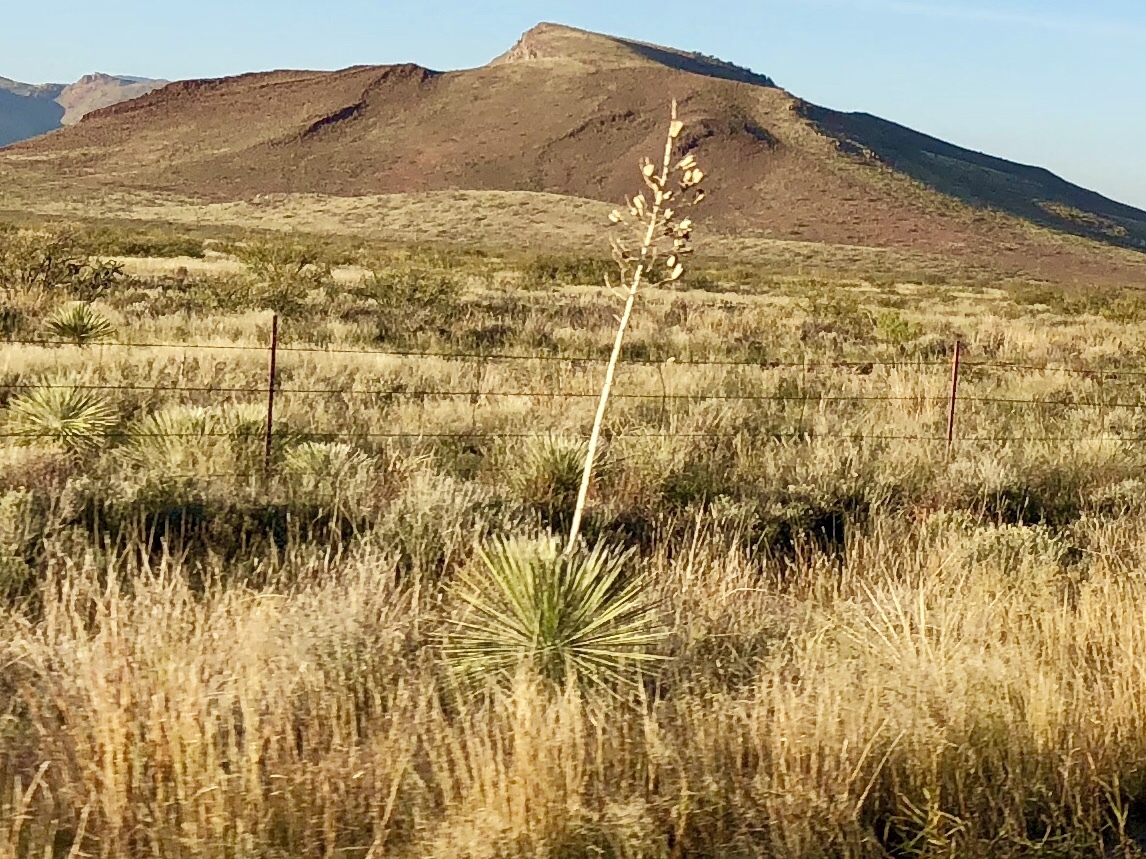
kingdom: Plantae
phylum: Tracheophyta
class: Liliopsida
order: Asparagales
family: Asparagaceae
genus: Yucca
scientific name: Yucca elata
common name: Palmella
